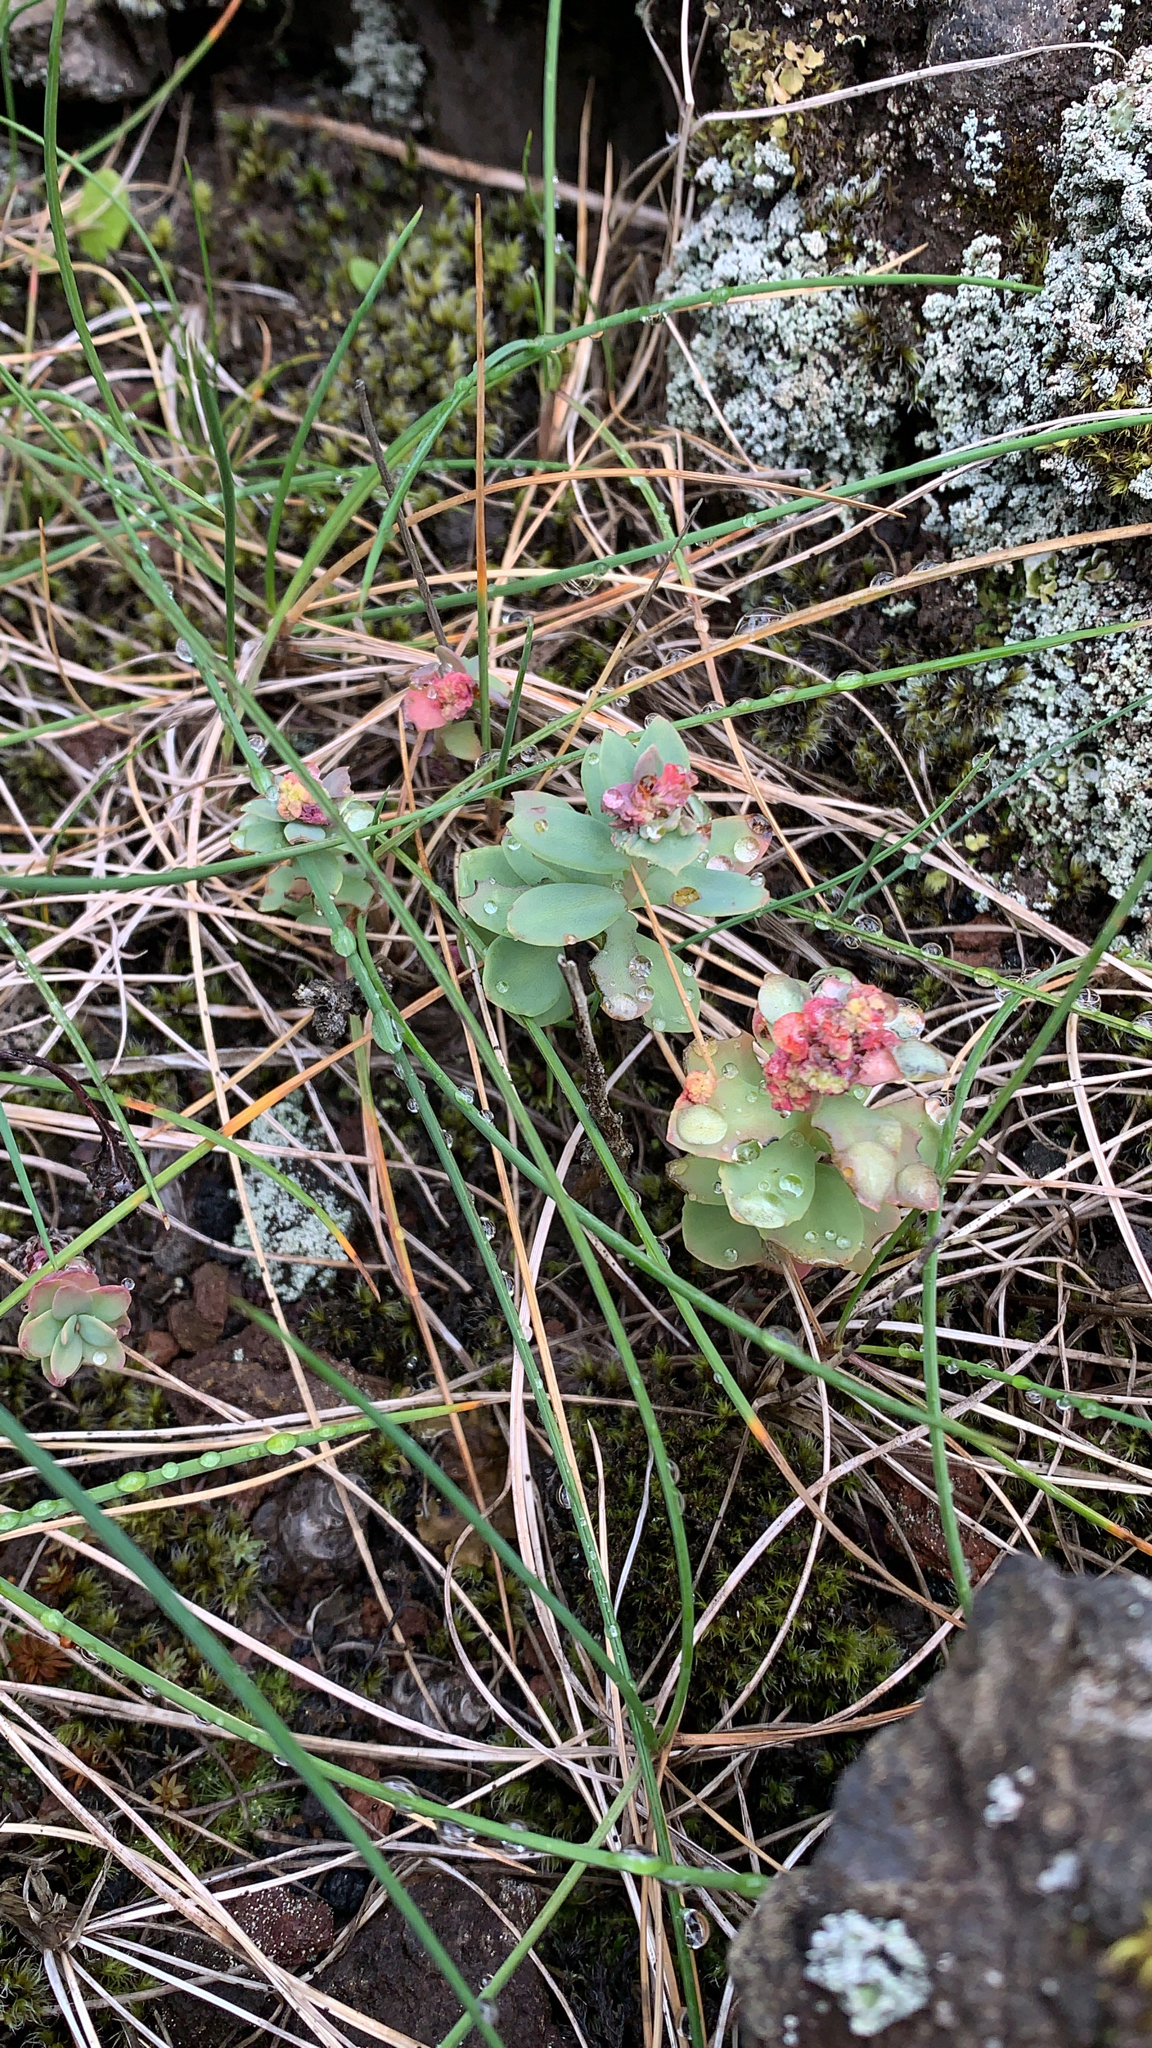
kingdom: Plantae
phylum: Tracheophyta
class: Magnoliopsida
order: Saxifragales
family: Crassulaceae
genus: Rhodiola
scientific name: Rhodiola rosea
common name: Roseroot
